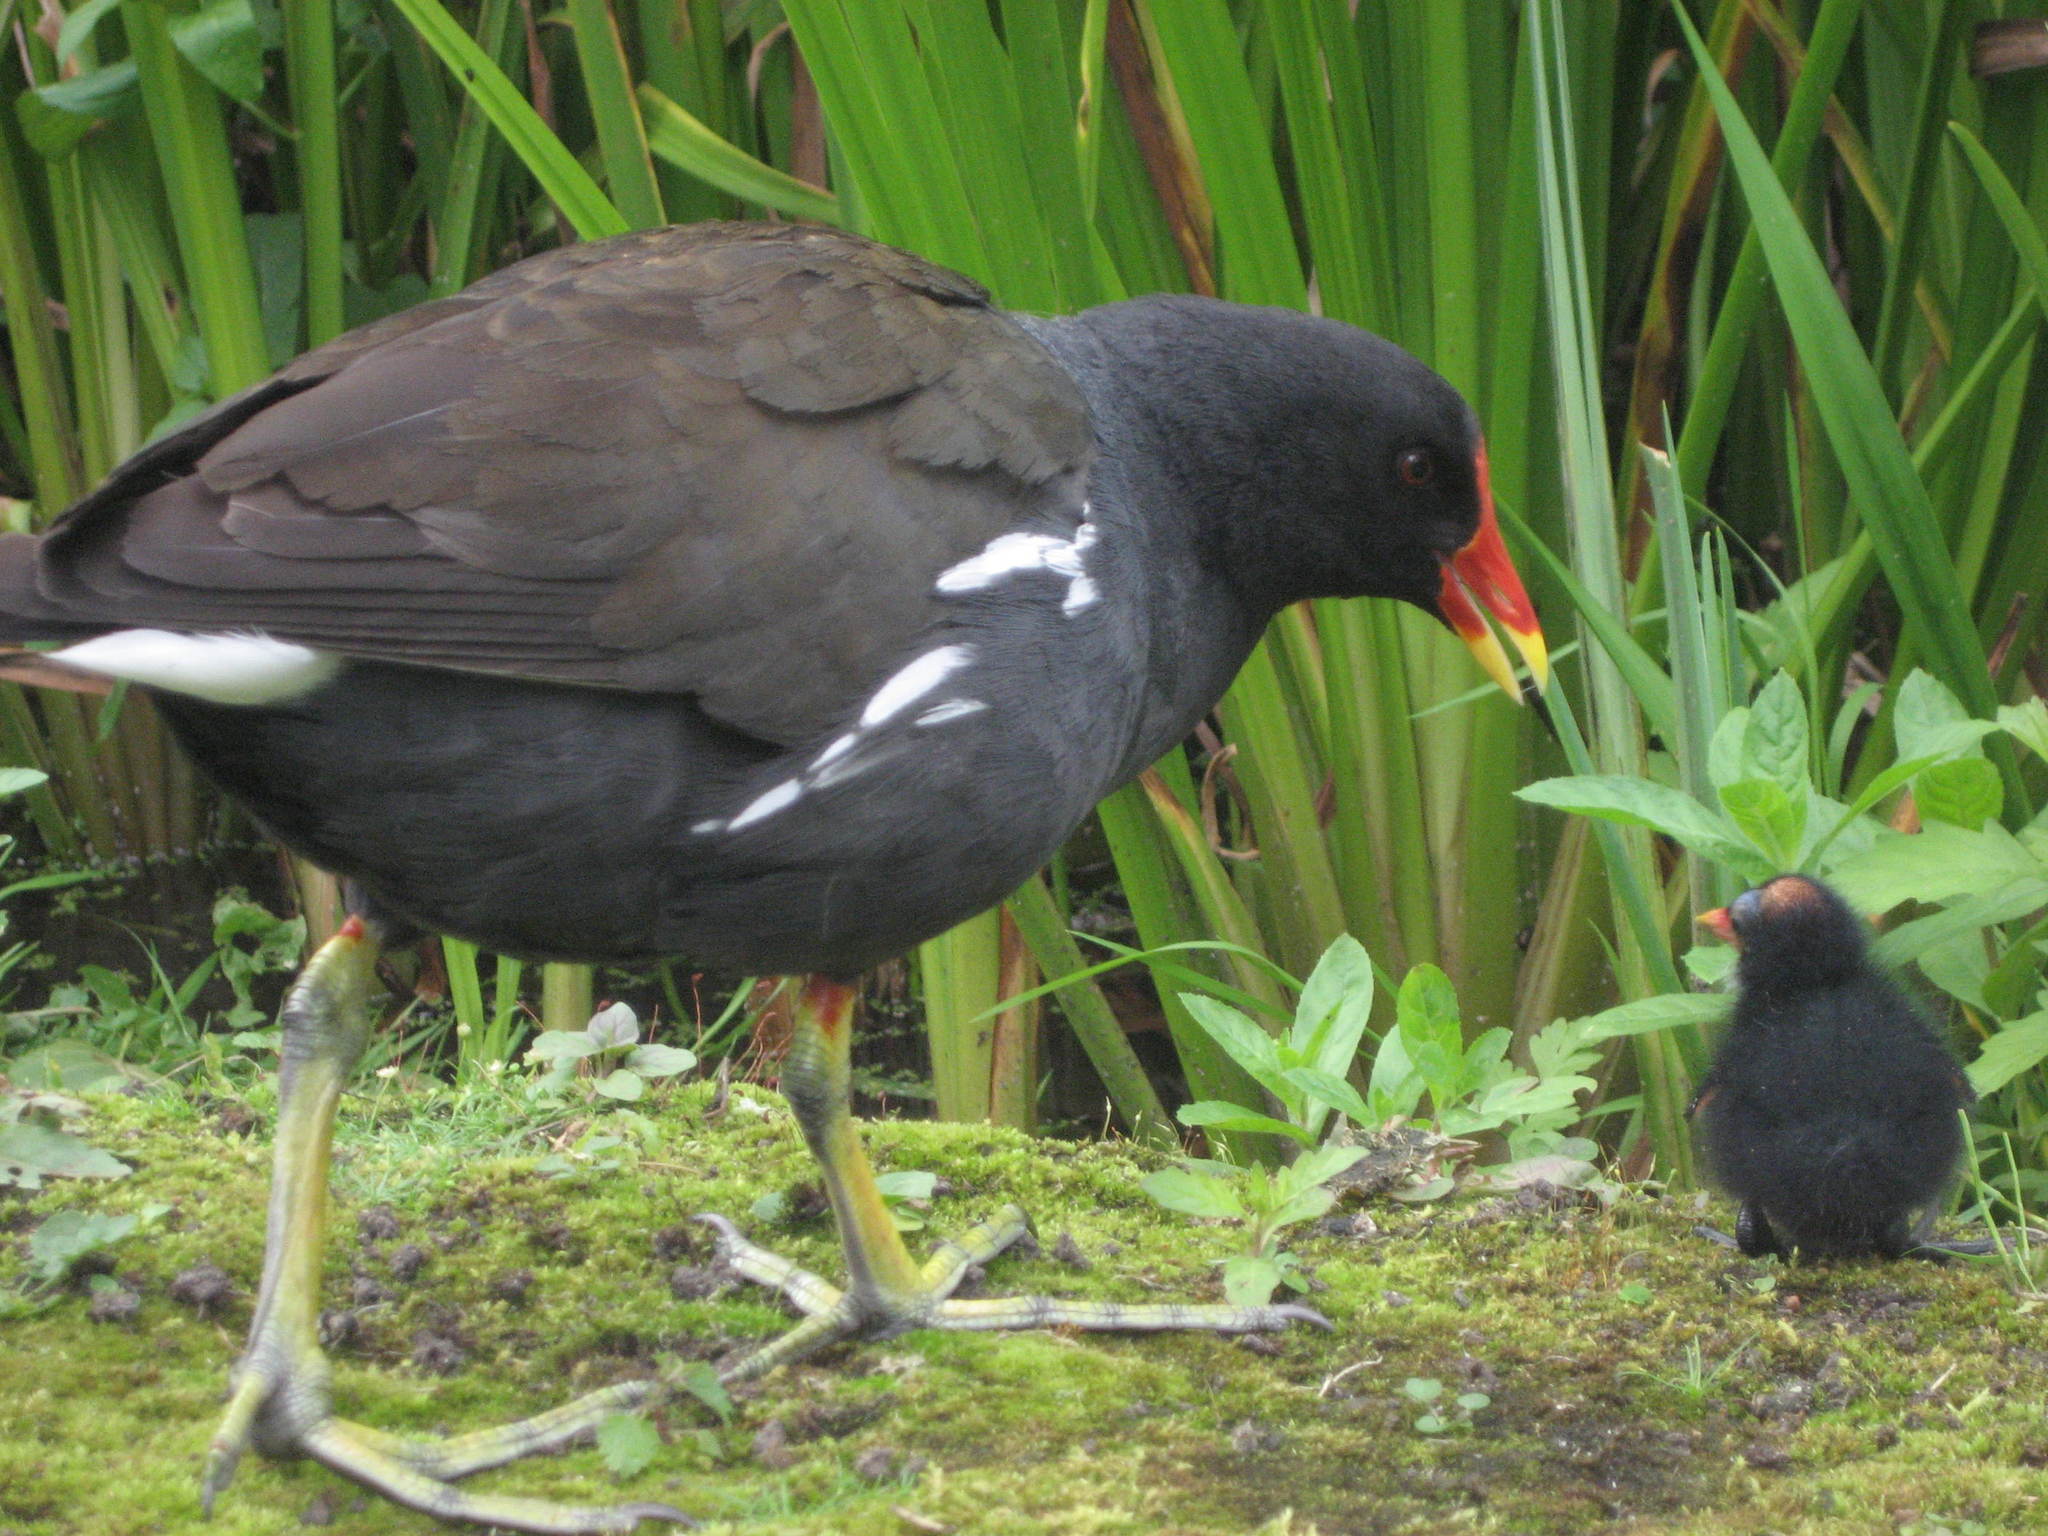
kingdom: Animalia
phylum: Chordata
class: Aves
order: Gruiformes
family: Rallidae
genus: Gallinula
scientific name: Gallinula chloropus
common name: Common moorhen
